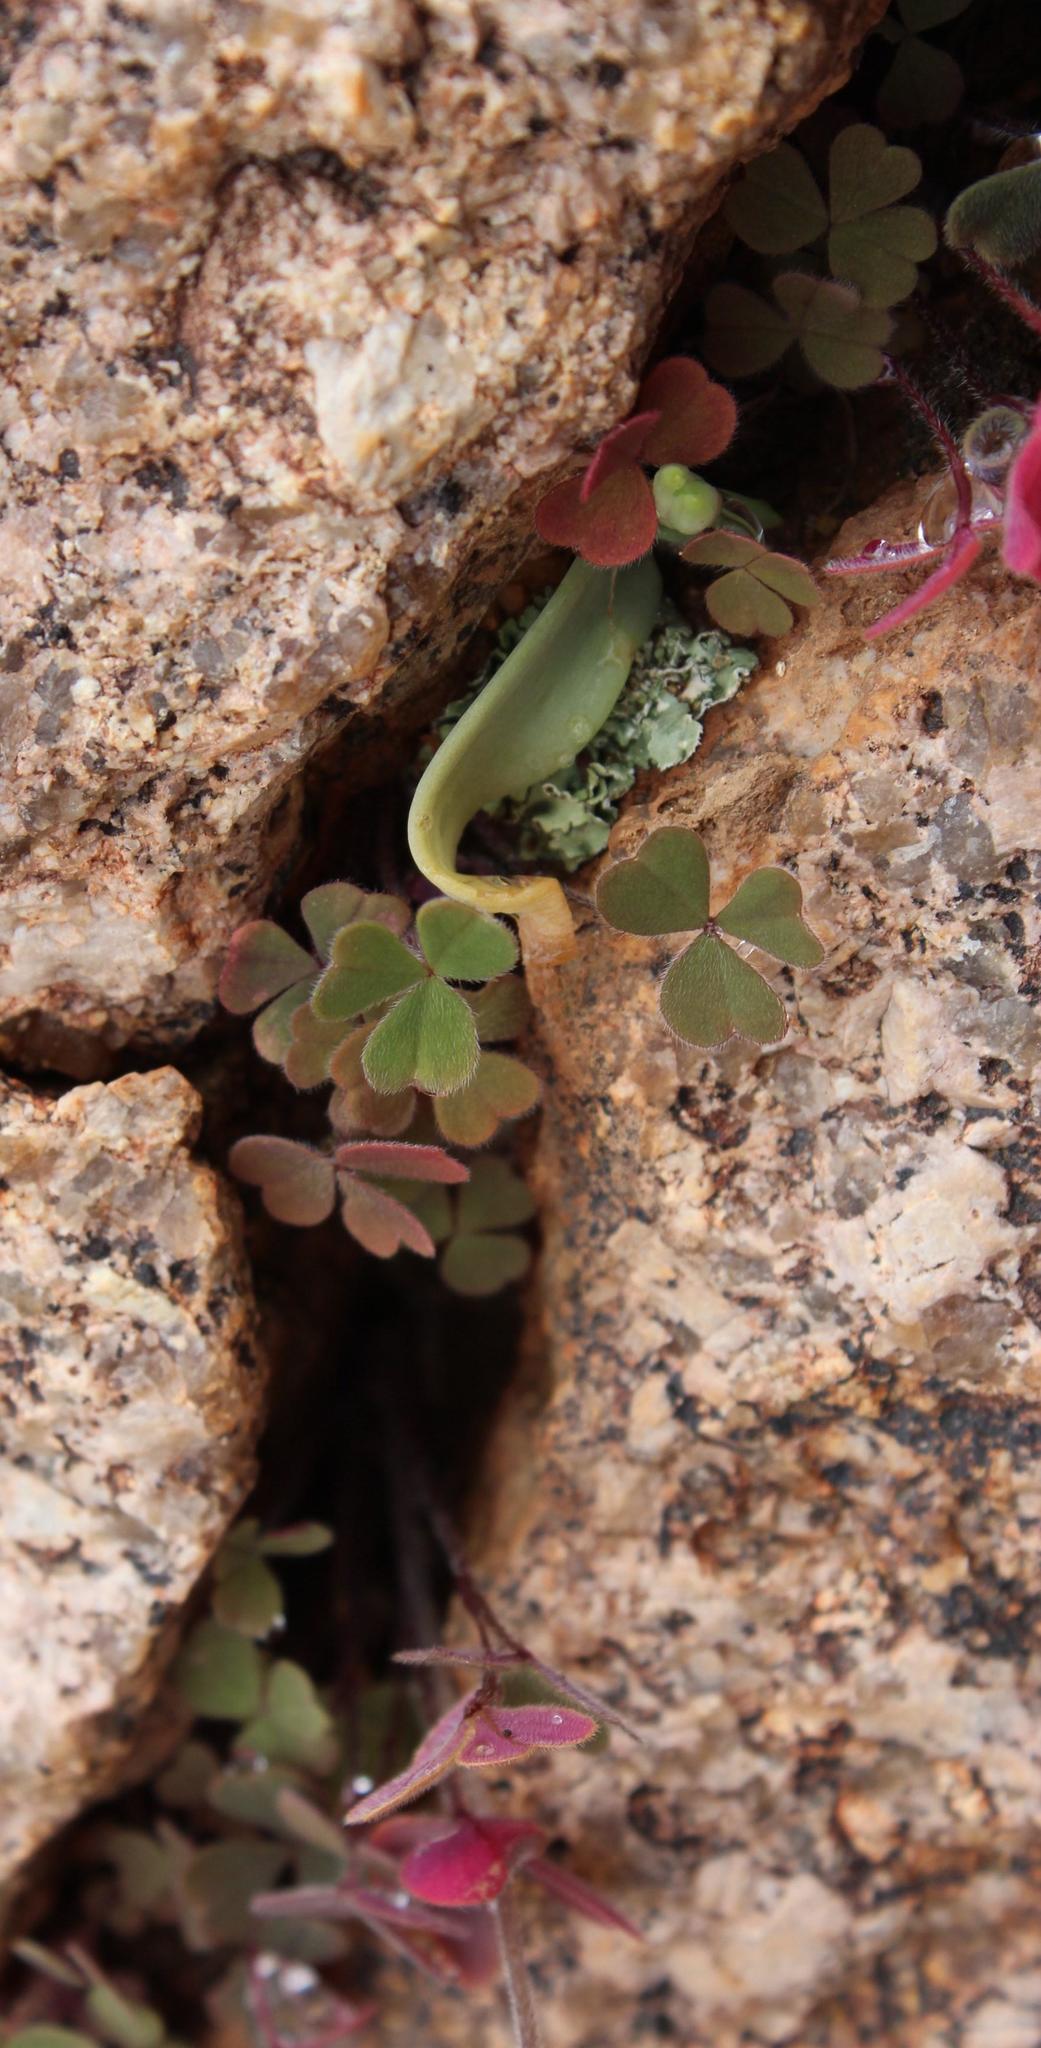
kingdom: Plantae
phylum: Tracheophyta
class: Magnoliopsida
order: Oxalidales
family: Oxalidaceae
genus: Oxalis
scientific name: Oxalis obtusa
